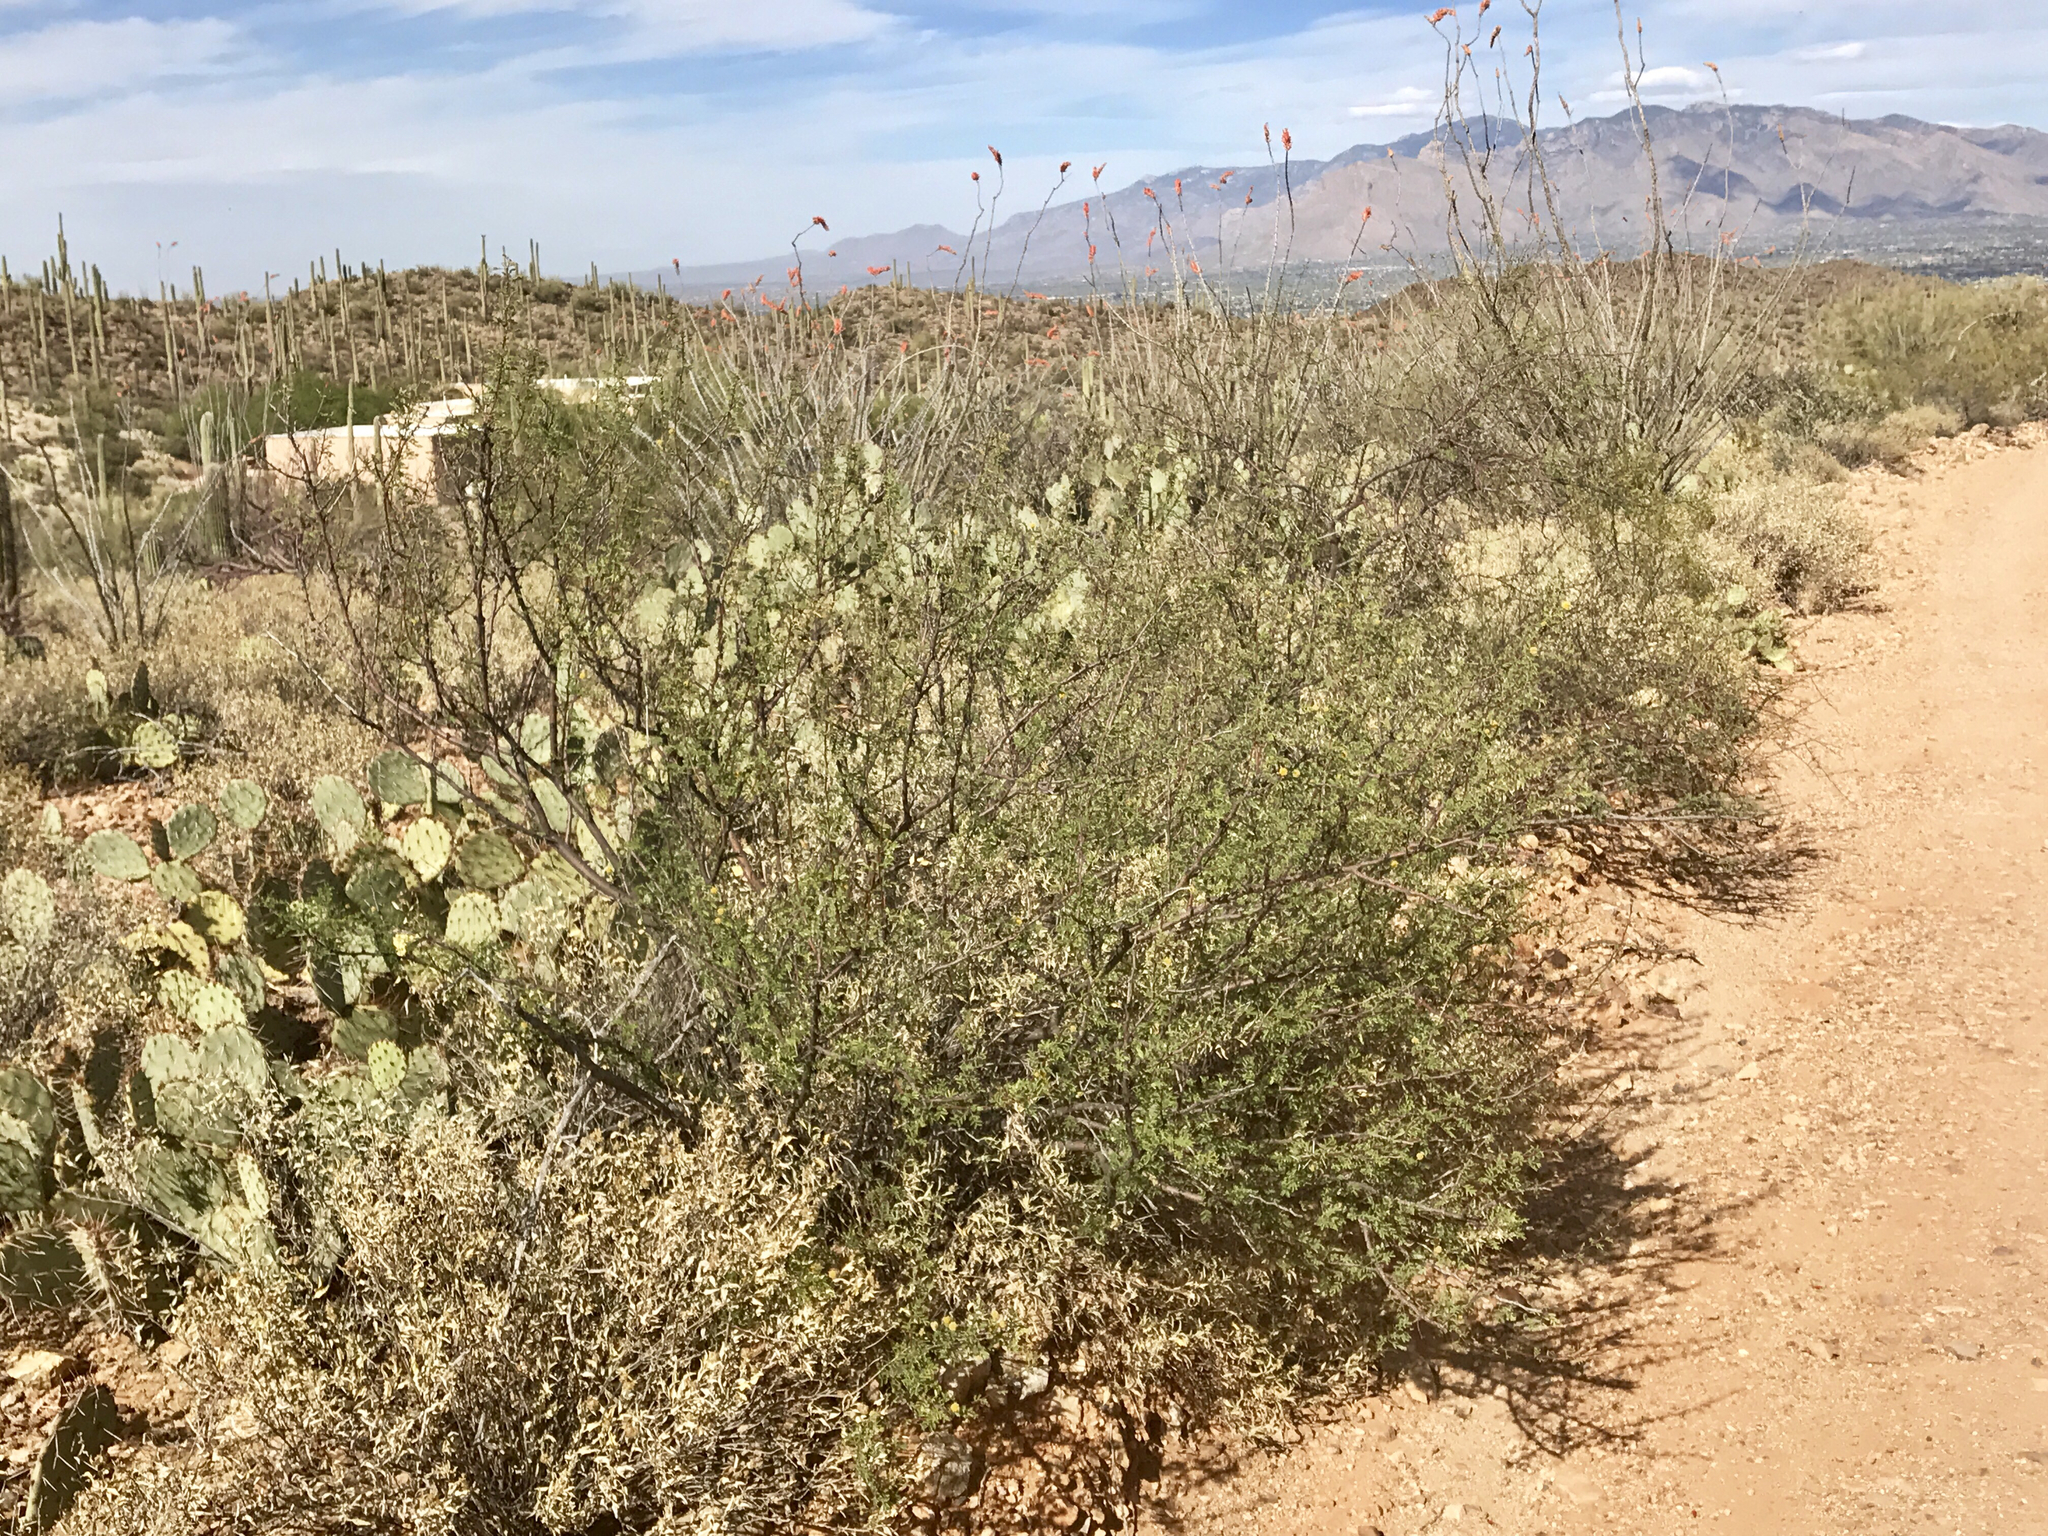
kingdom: Plantae
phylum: Tracheophyta
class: Magnoliopsida
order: Fabales
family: Fabaceae
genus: Vachellia
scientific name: Vachellia farnesiana
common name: Sweet acacia
